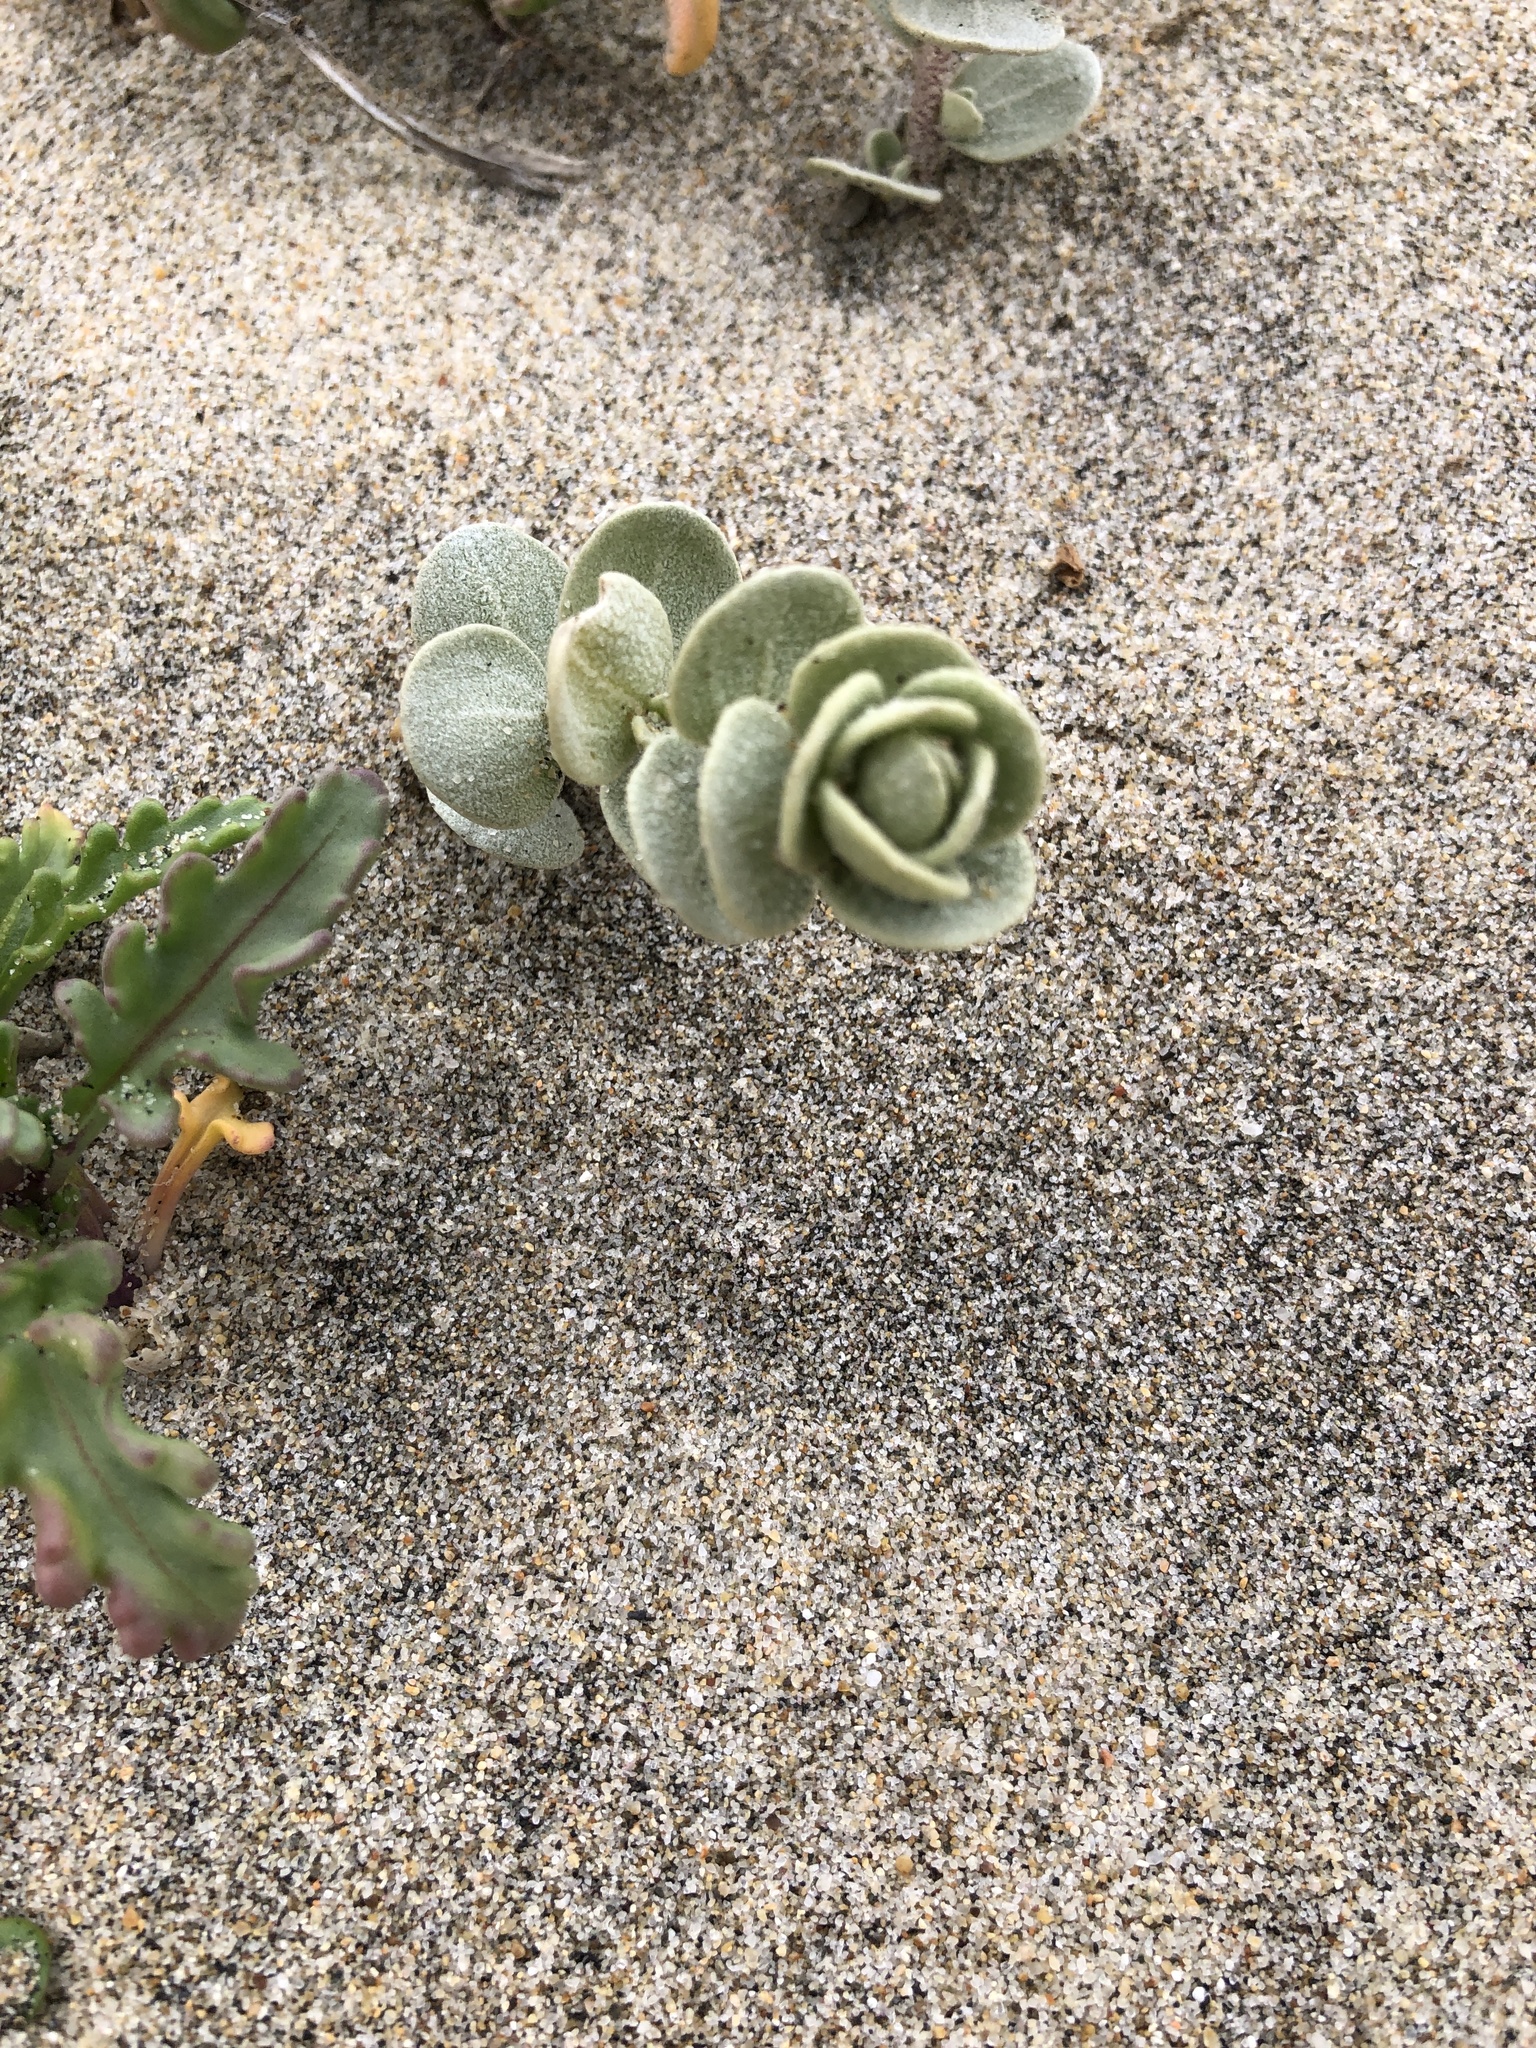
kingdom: Plantae
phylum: Tracheophyta
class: Magnoliopsida
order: Caryophyllales
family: Amaranthaceae
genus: Atriplex
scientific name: Atriplex leucophylla
